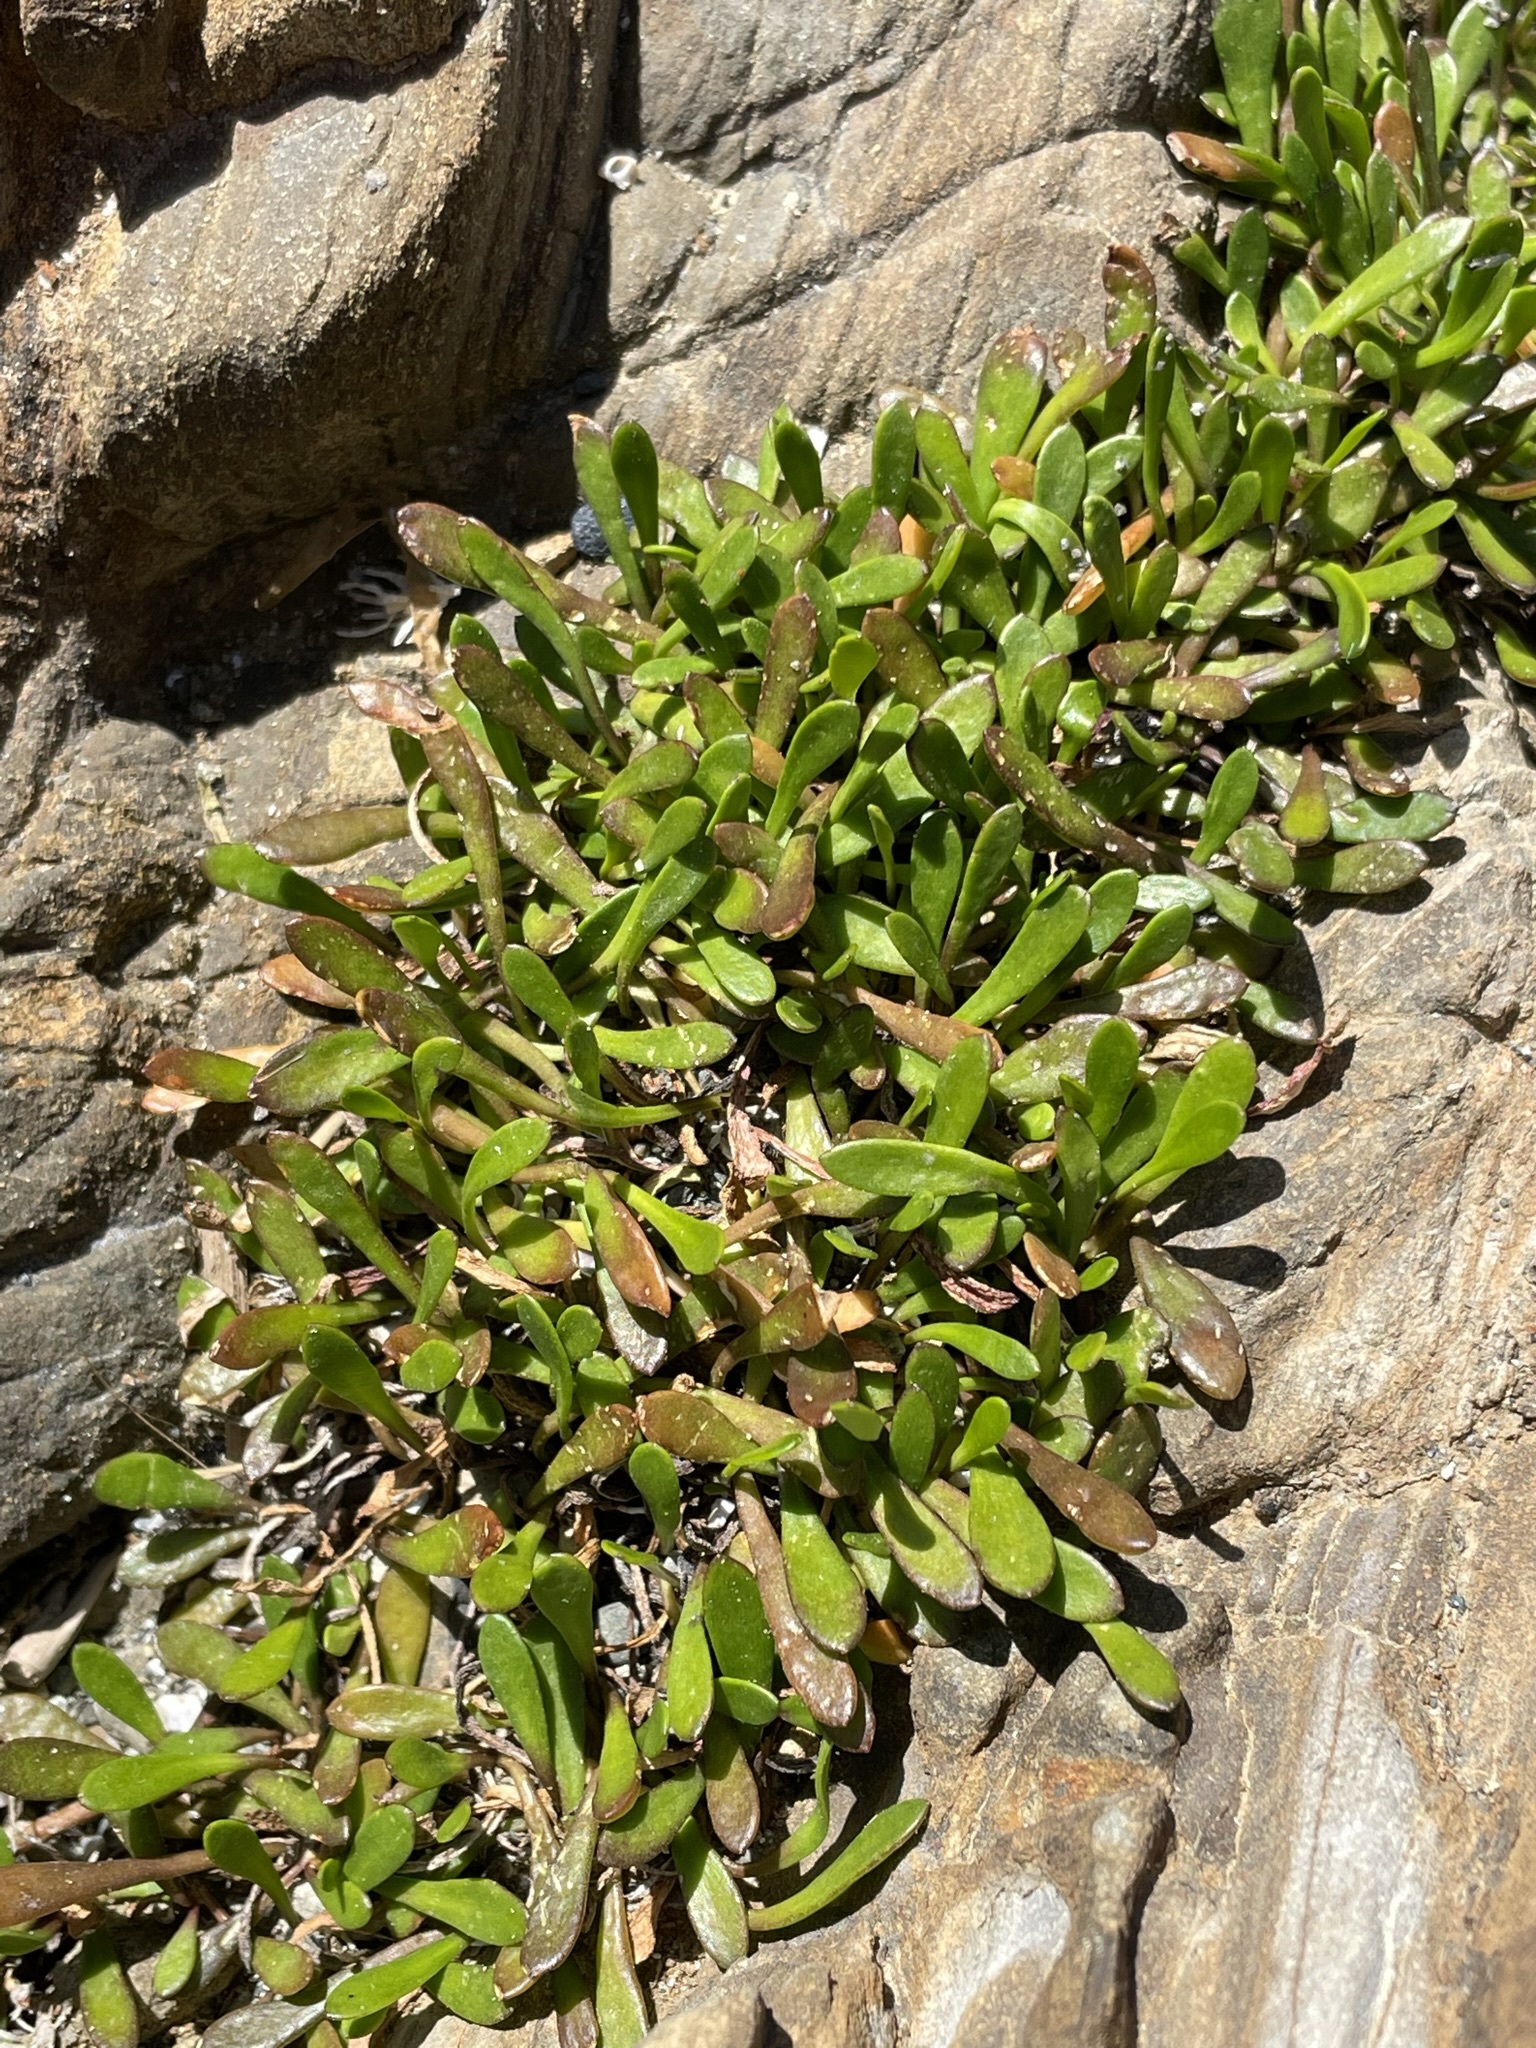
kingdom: Plantae
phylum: Tracheophyta
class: Magnoliopsida
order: Asterales
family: Goodeniaceae
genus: Goodenia
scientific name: Goodenia radicans
